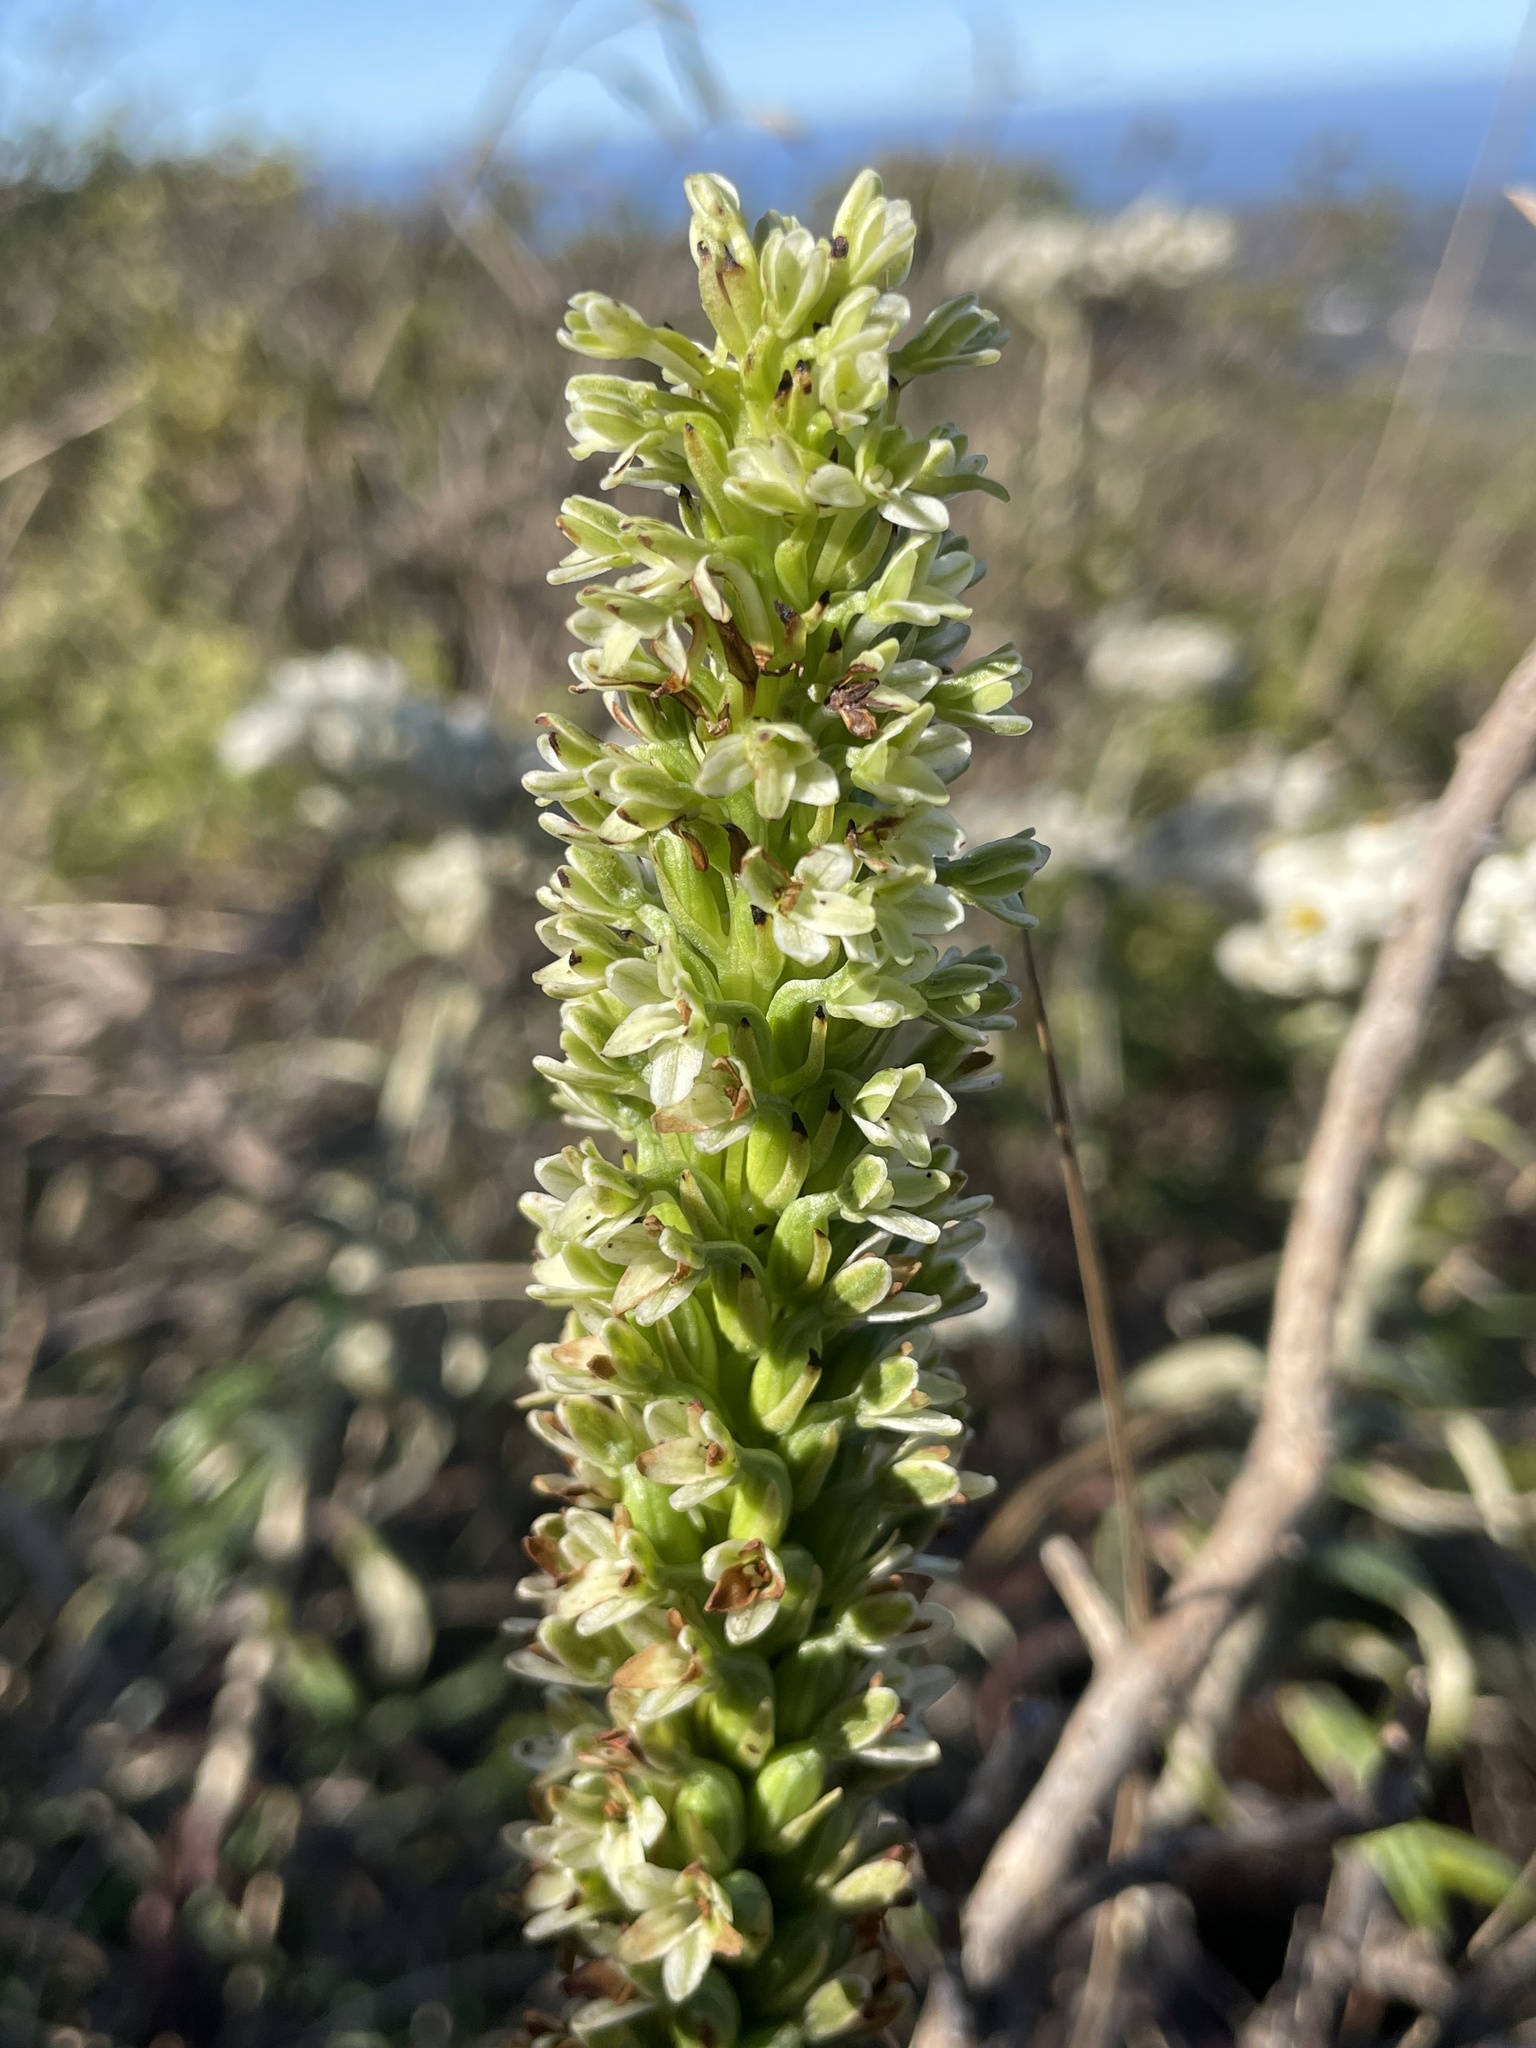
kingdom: Plantae
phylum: Tracheophyta
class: Liliopsida
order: Asparagales
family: Orchidaceae
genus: Platanthera
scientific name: Platanthera elegans
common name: Coast piperia
